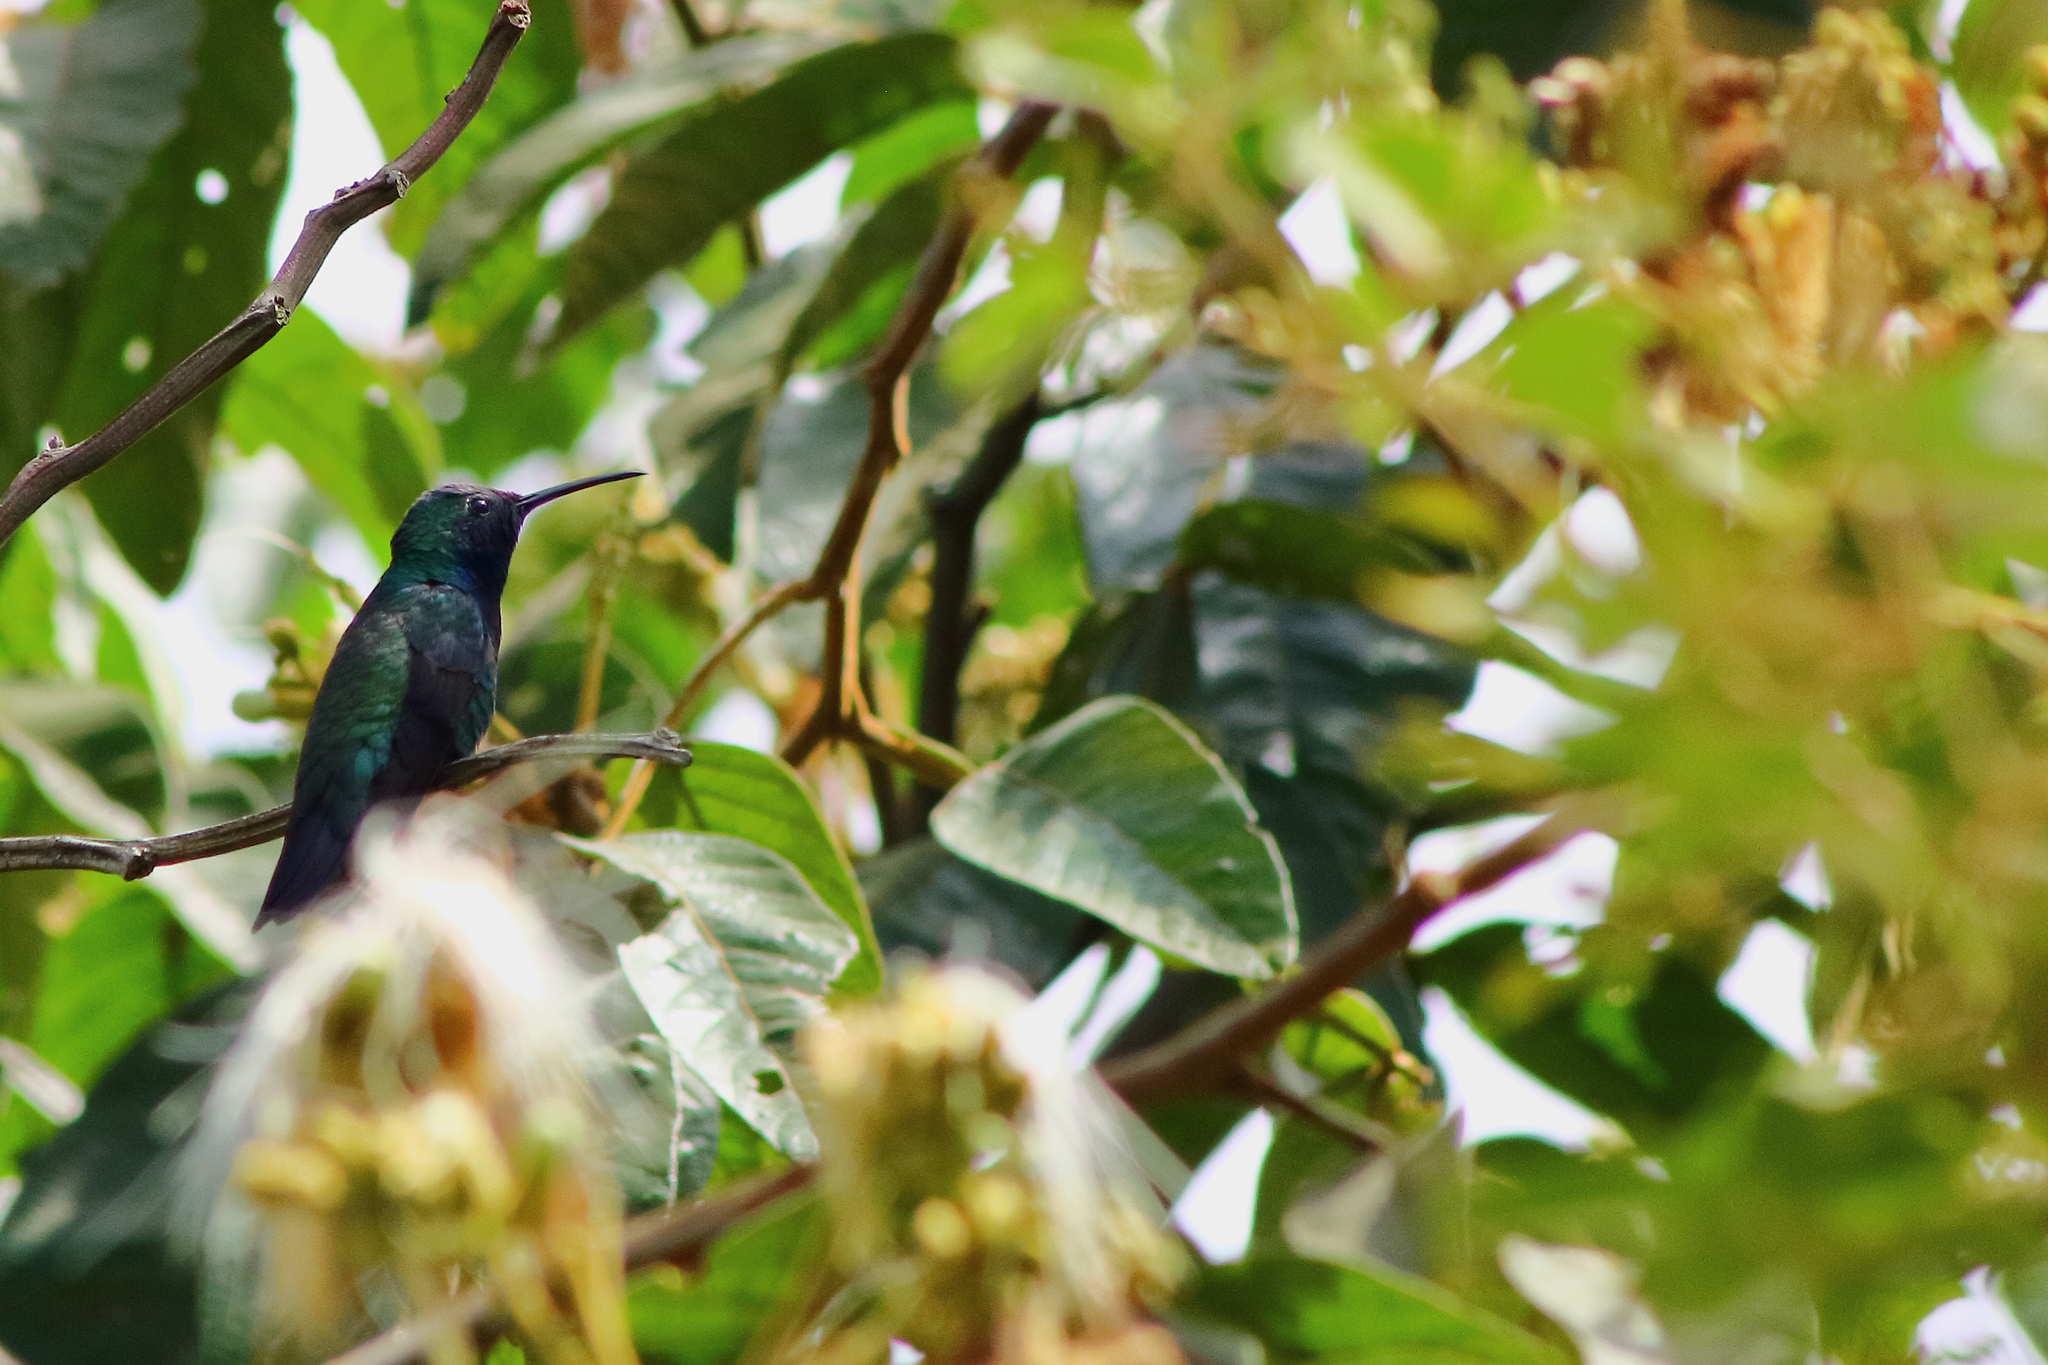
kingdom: Animalia
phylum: Chordata
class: Aves
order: Apodiformes
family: Trochilidae
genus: Anthracothorax
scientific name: Anthracothorax nigricollis
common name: Black-throated mango
